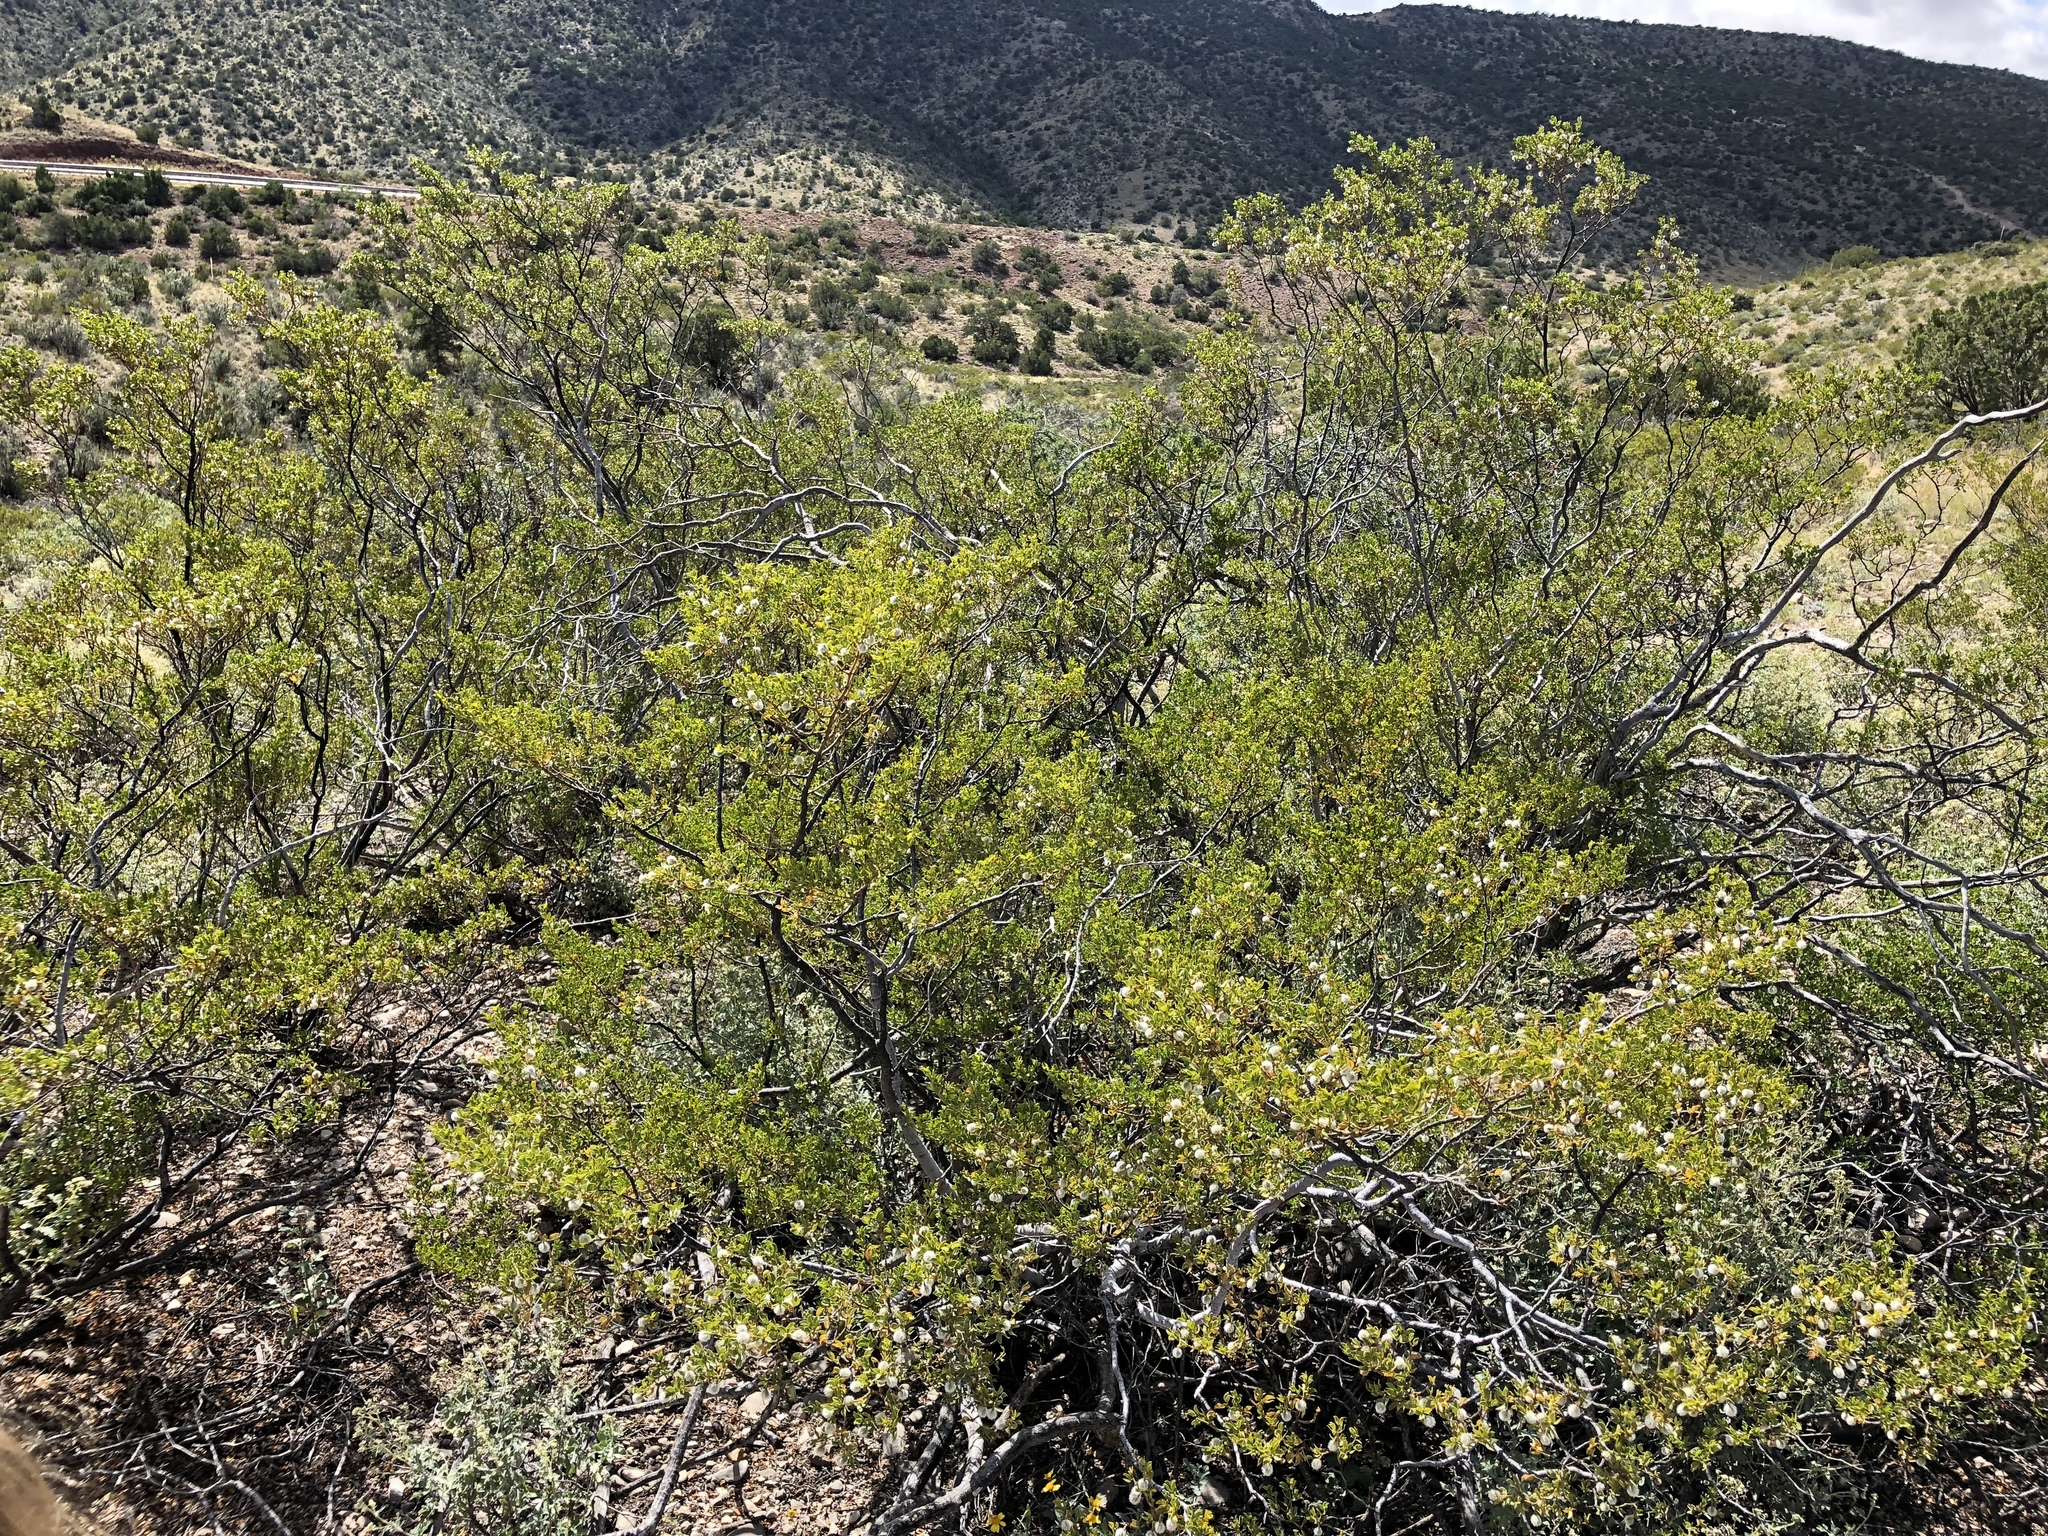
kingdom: Plantae
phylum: Tracheophyta
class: Magnoliopsida
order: Zygophyllales
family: Zygophyllaceae
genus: Larrea
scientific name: Larrea tridentata
